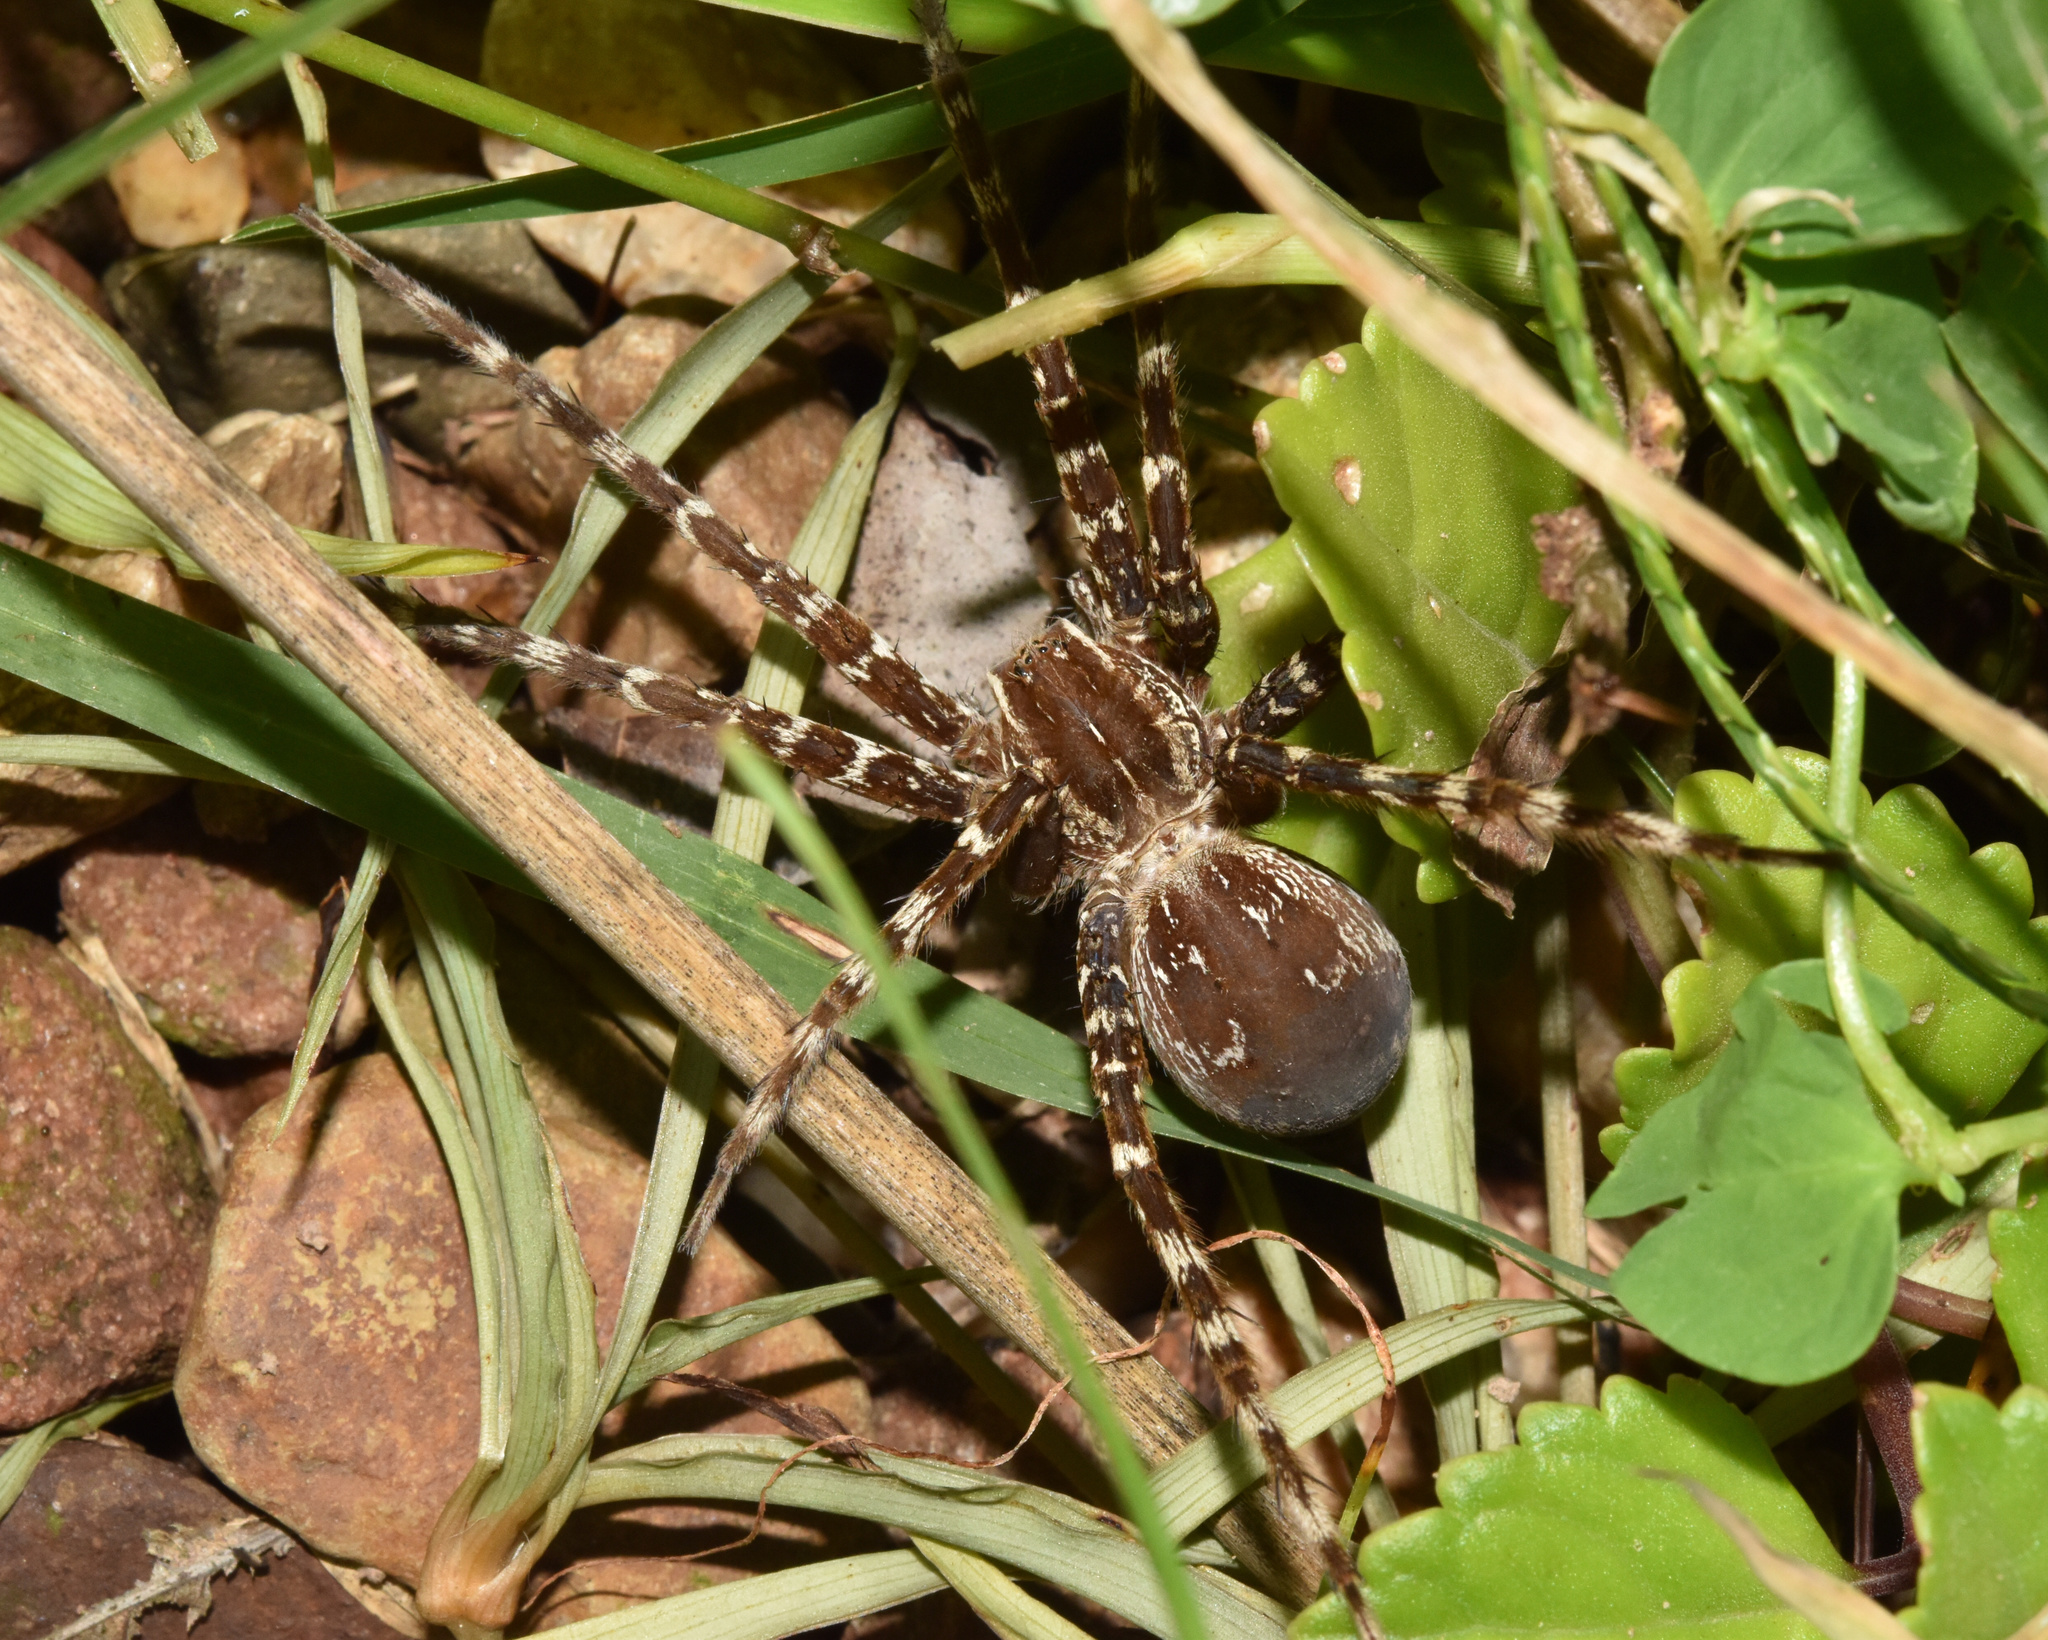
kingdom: Animalia
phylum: Arthropoda
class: Arachnida
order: Araneae
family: Pisauridae
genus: Nilus
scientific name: Nilus curtus
